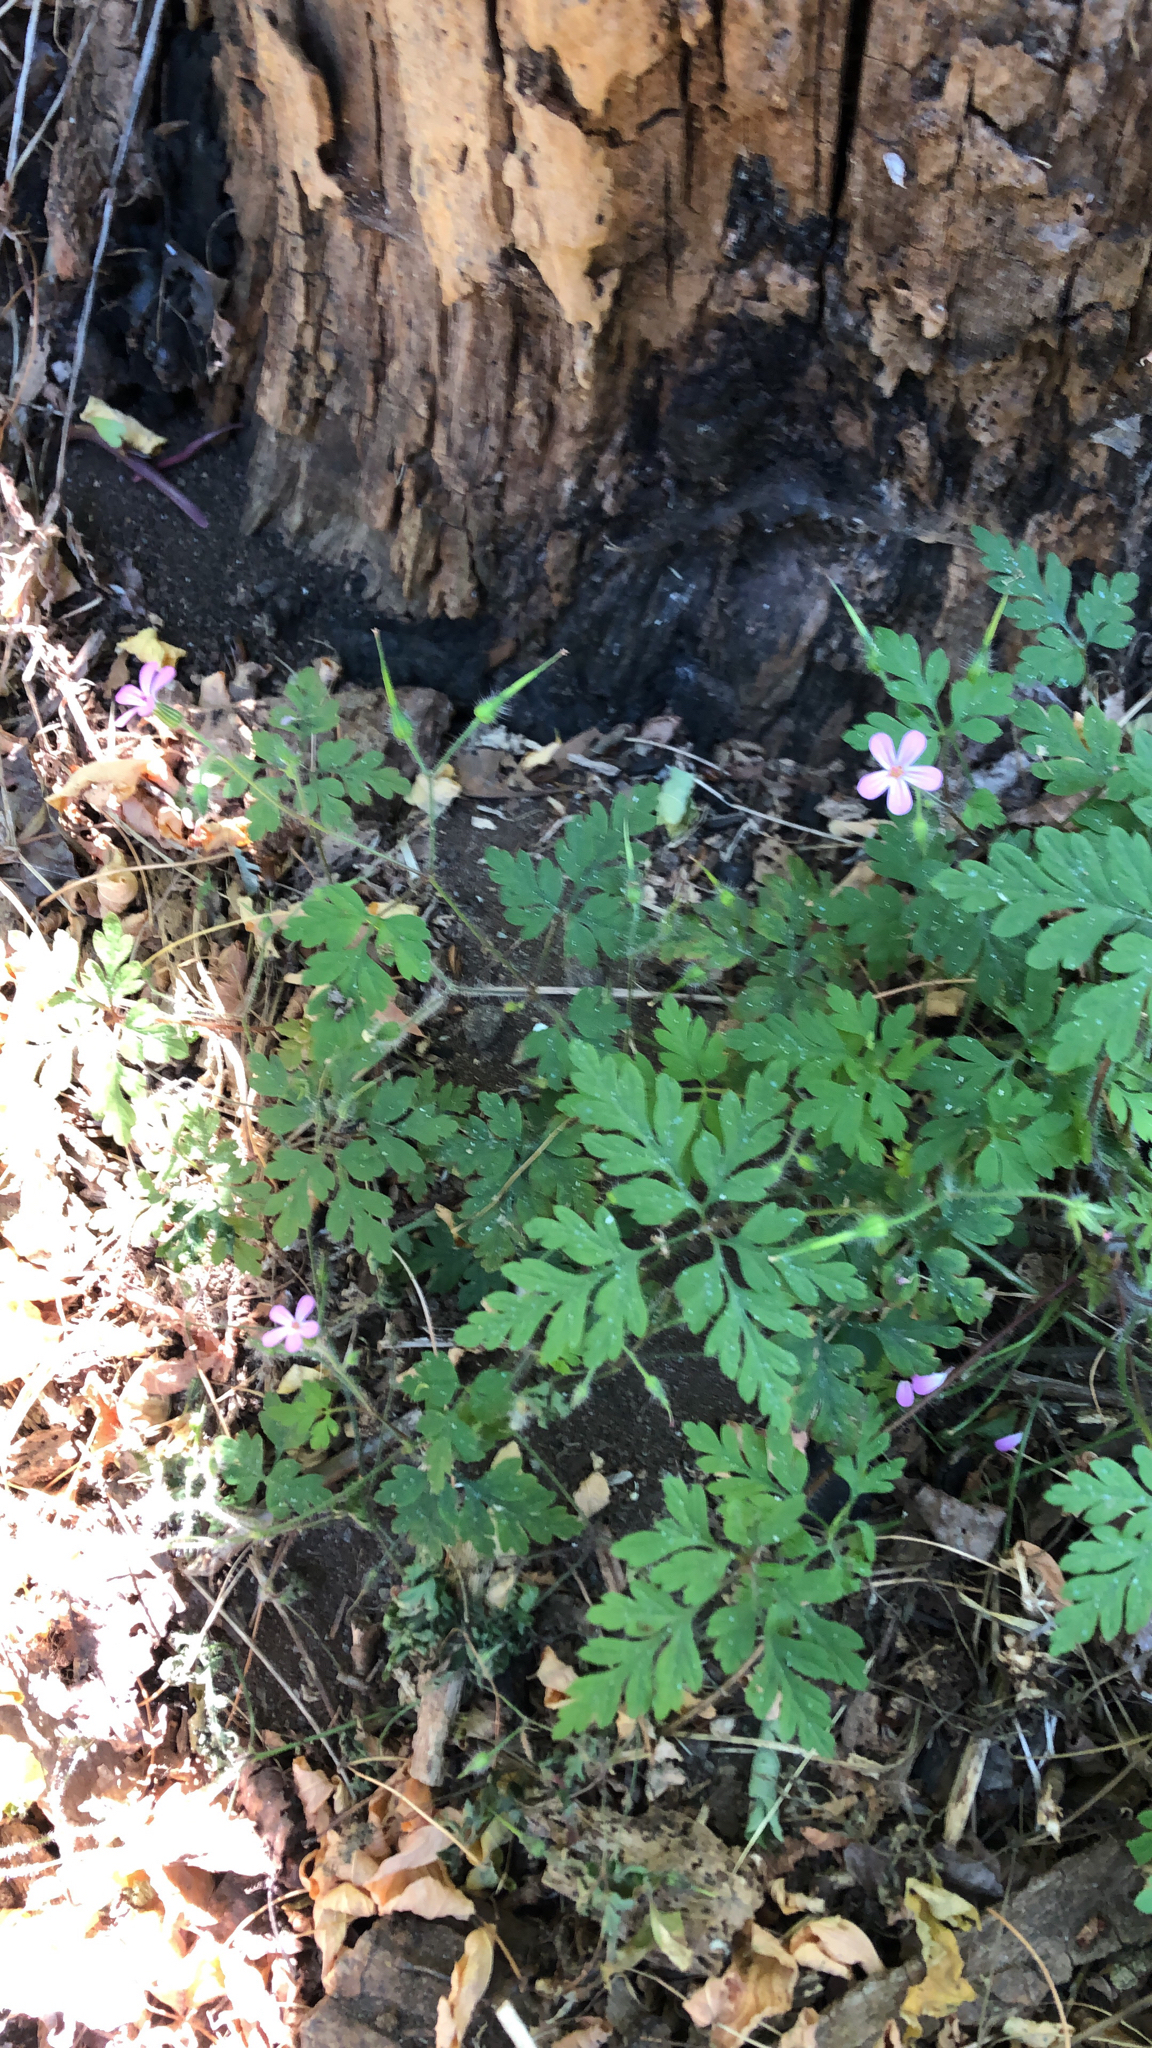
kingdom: Plantae
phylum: Tracheophyta
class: Magnoliopsida
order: Geraniales
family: Geraniaceae
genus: Geranium
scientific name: Geranium robertianum
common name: Herb-robert
